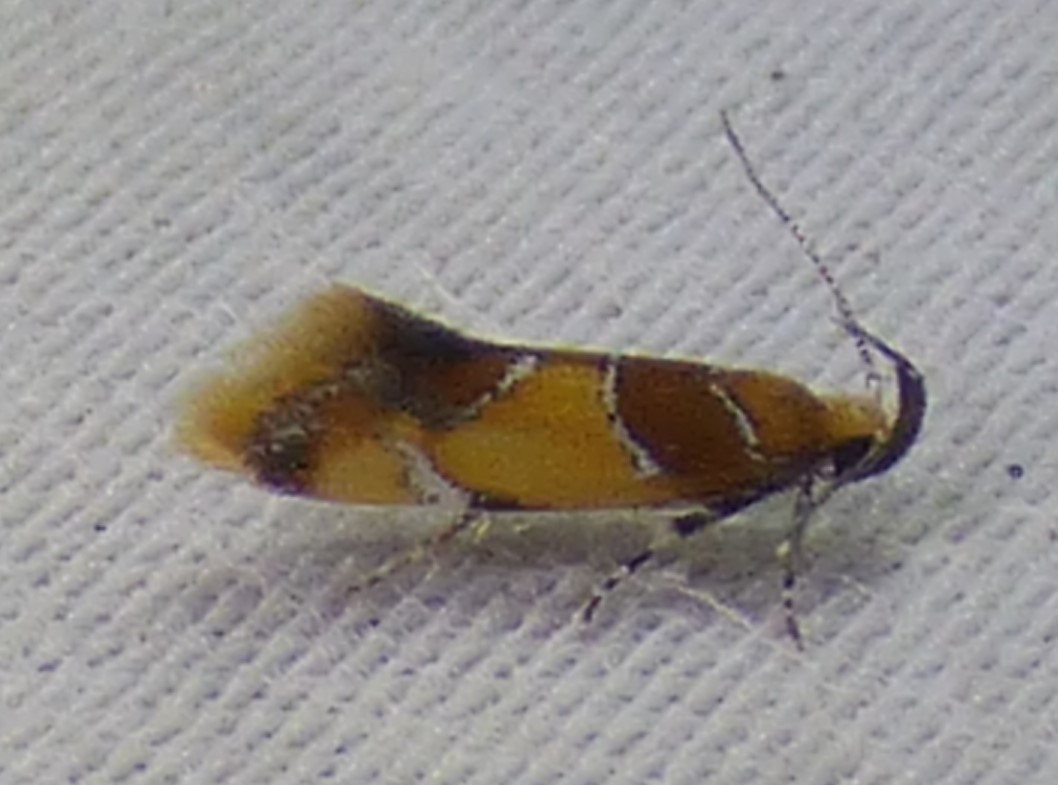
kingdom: Animalia
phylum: Arthropoda
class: Insecta
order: Lepidoptera
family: Oecophoridae
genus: Callima
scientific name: Callima argenticinctella
